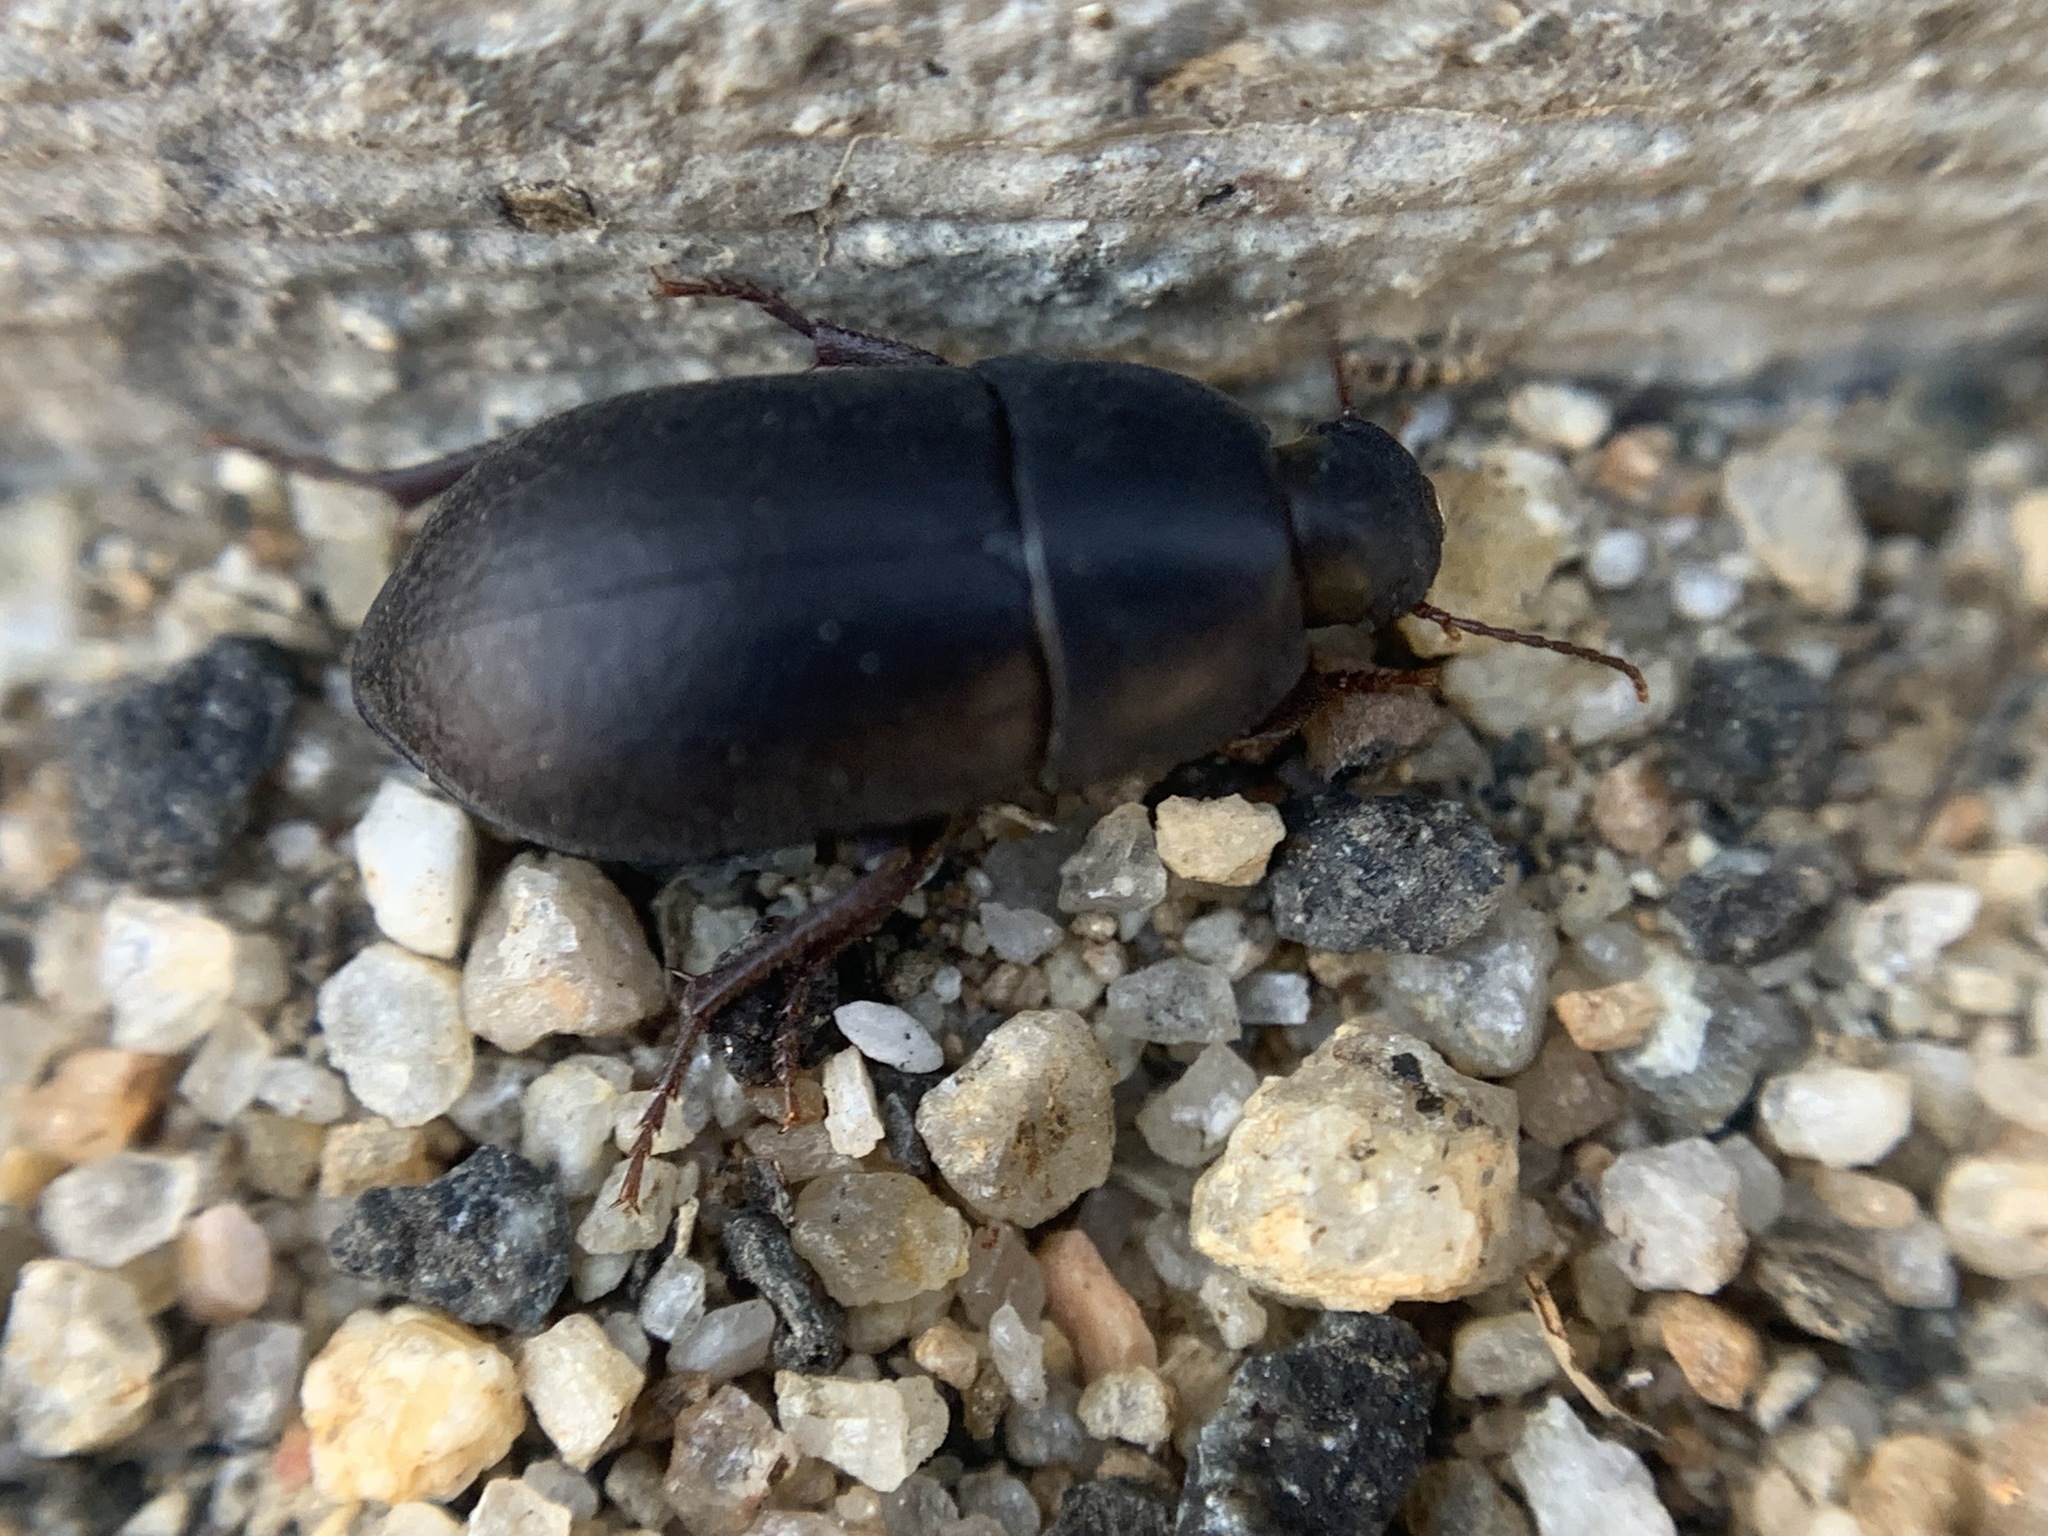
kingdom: Animalia
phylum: Arthropoda
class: Insecta
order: Coleoptera
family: Tenebrionidae
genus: Coniontis
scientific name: Coniontis
